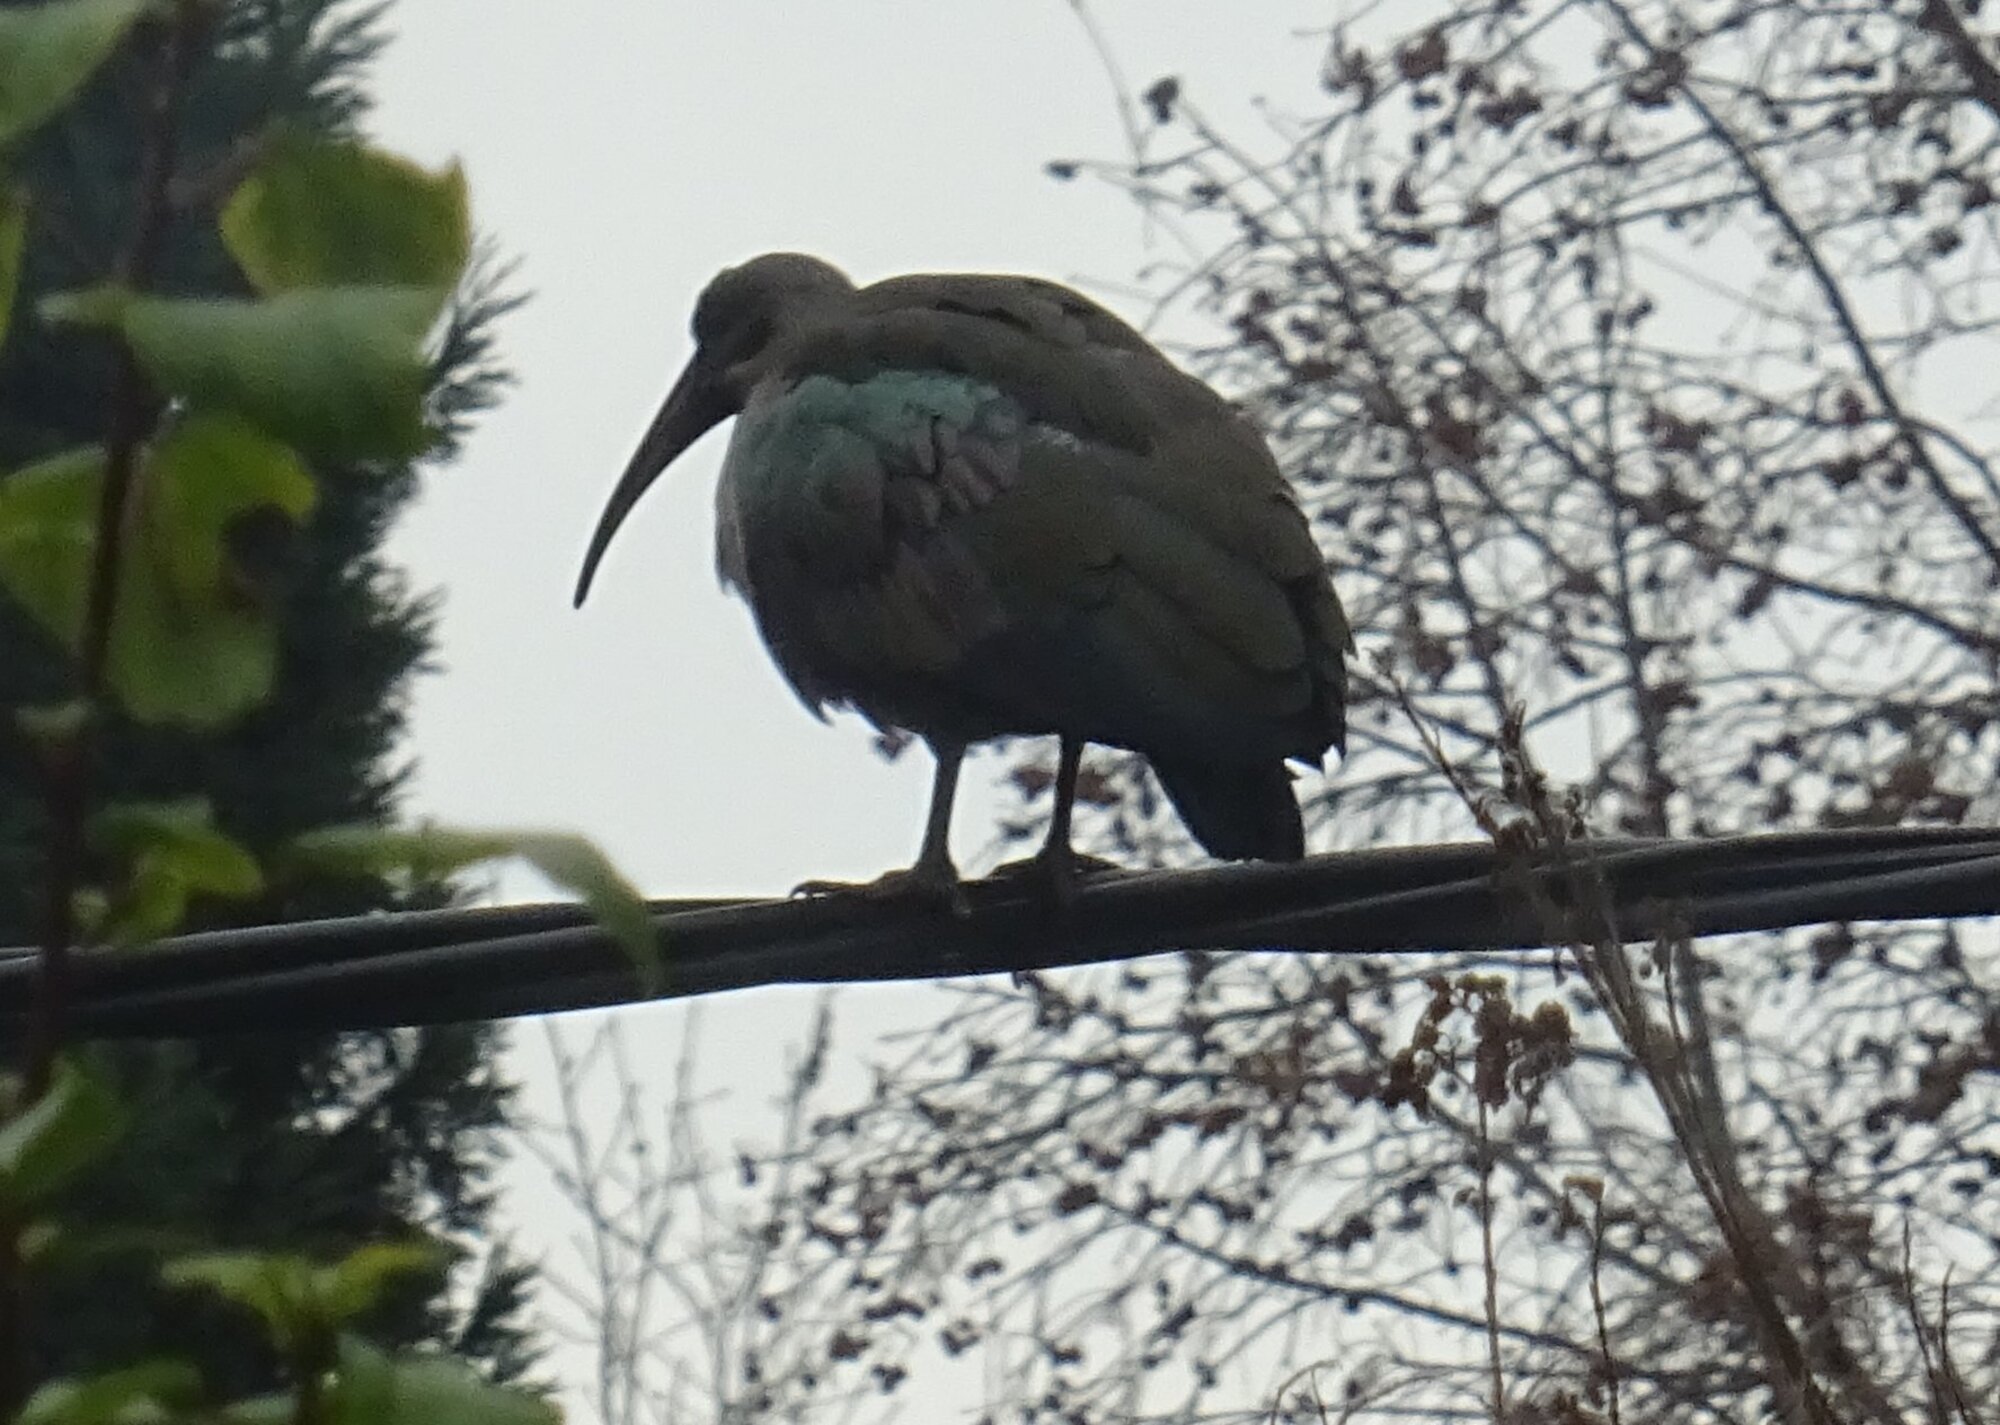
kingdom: Animalia
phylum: Chordata
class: Aves
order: Pelecaniformes
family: Threskiornithidae
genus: Bostrychia
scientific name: Bostrychia hagedash
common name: Hadada ibis
